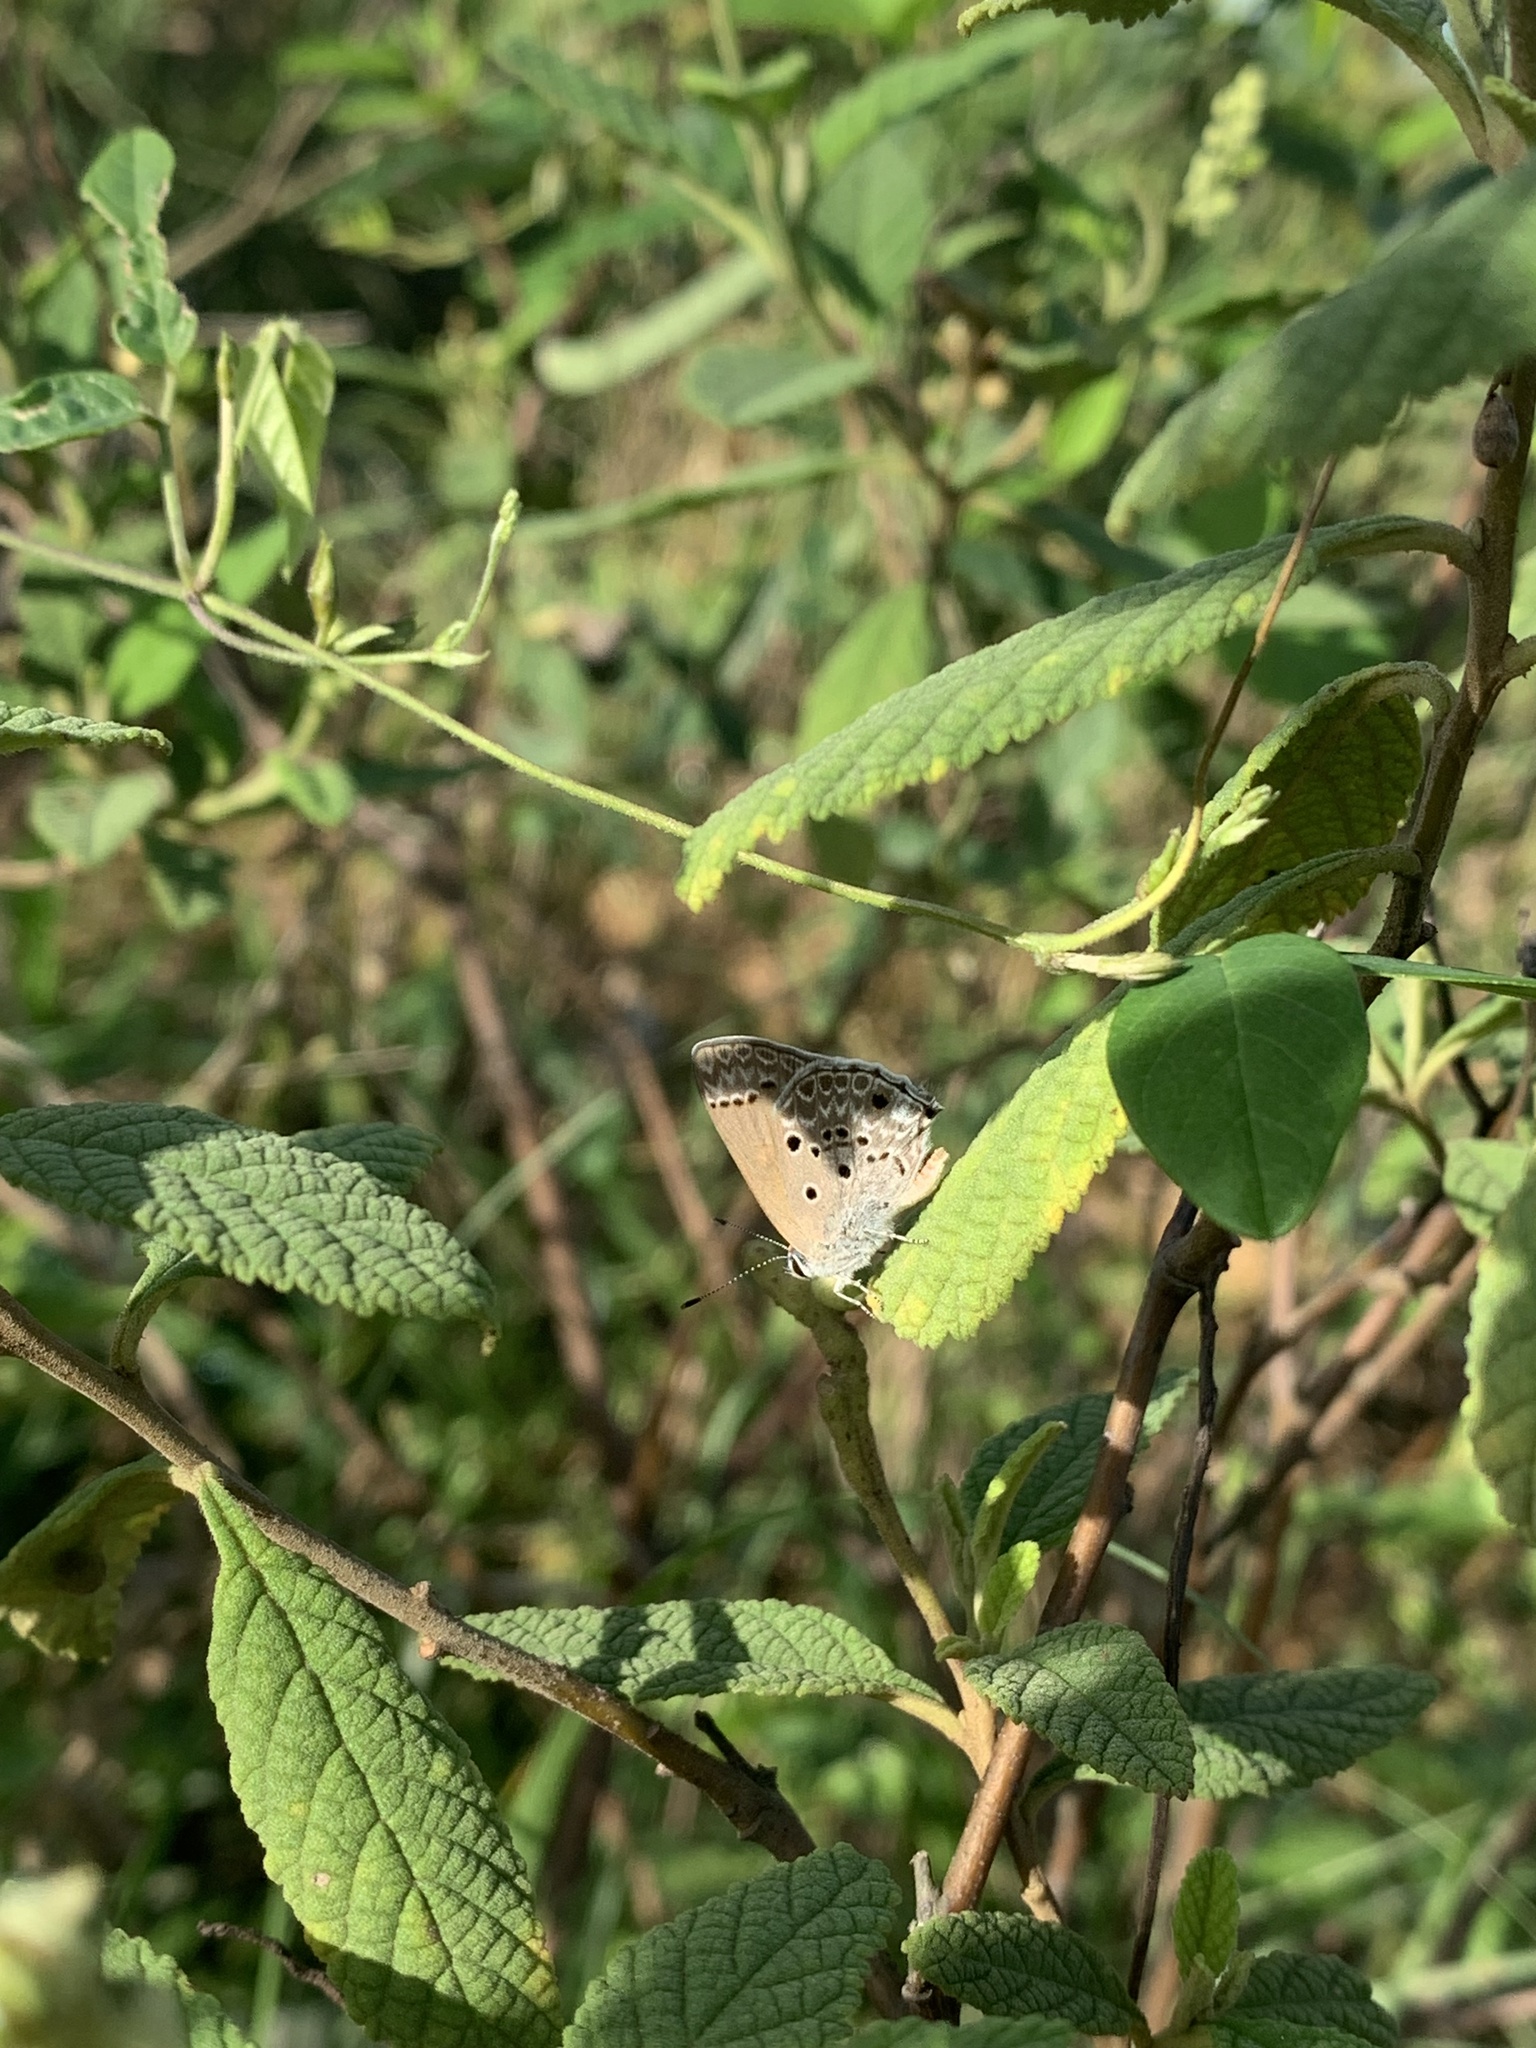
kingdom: Animalia
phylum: Arthropoda
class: Insecta
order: Lepidoptera
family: Lycaenidae
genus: Strymon
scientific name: Strymon bubastus
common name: Bubastes hairstreak
